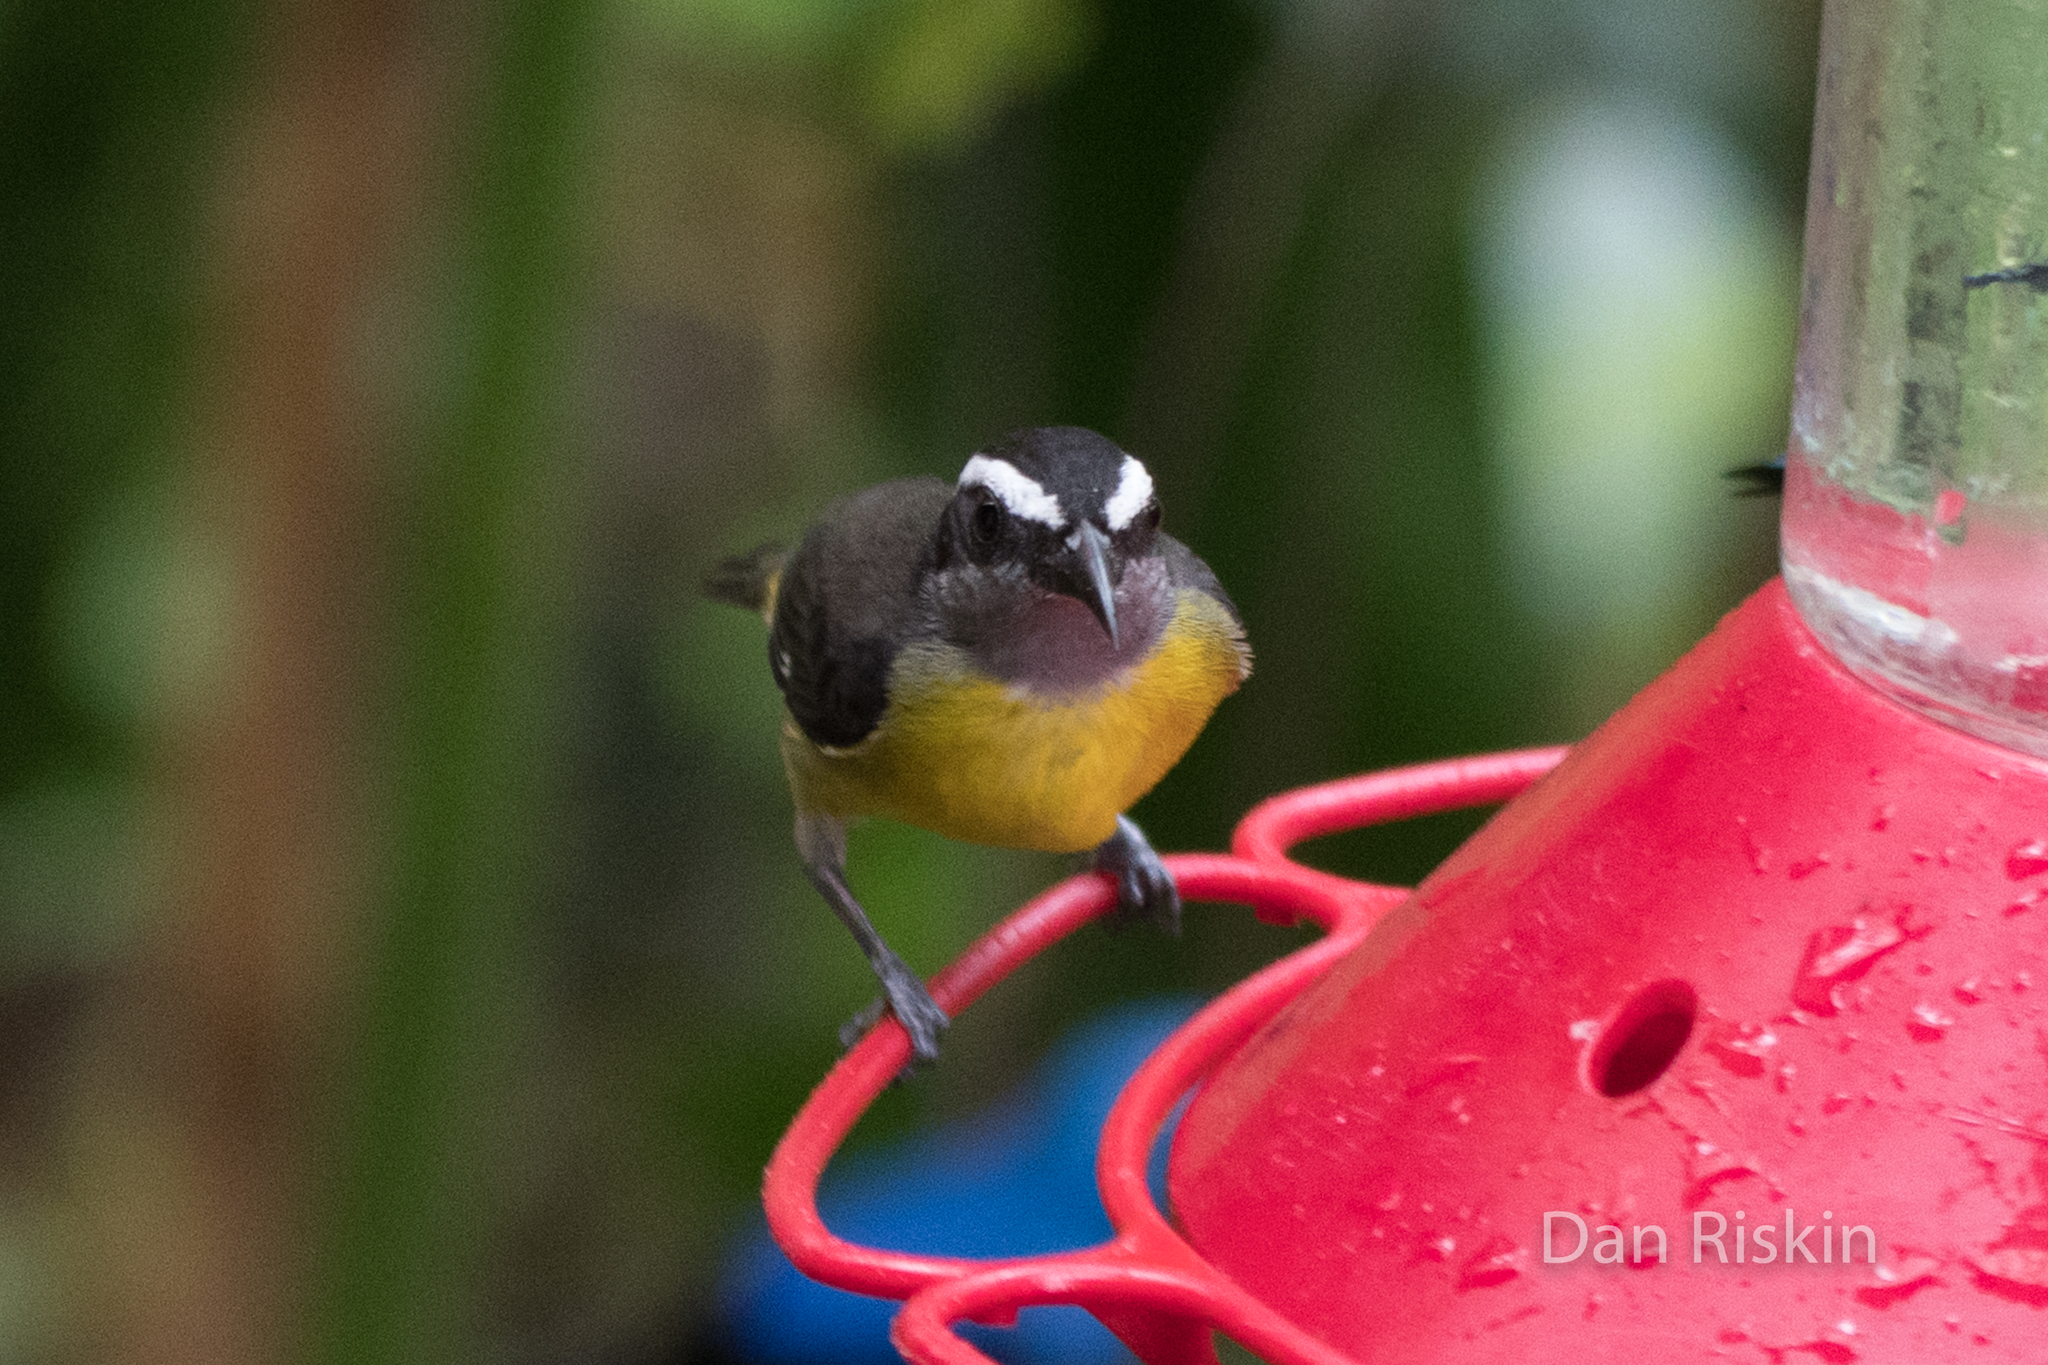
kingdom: Animalia
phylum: Chordata
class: Aves
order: Passeriformes
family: Thraupidae
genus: Coereba
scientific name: Coereba flaveola
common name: Bananaquit
